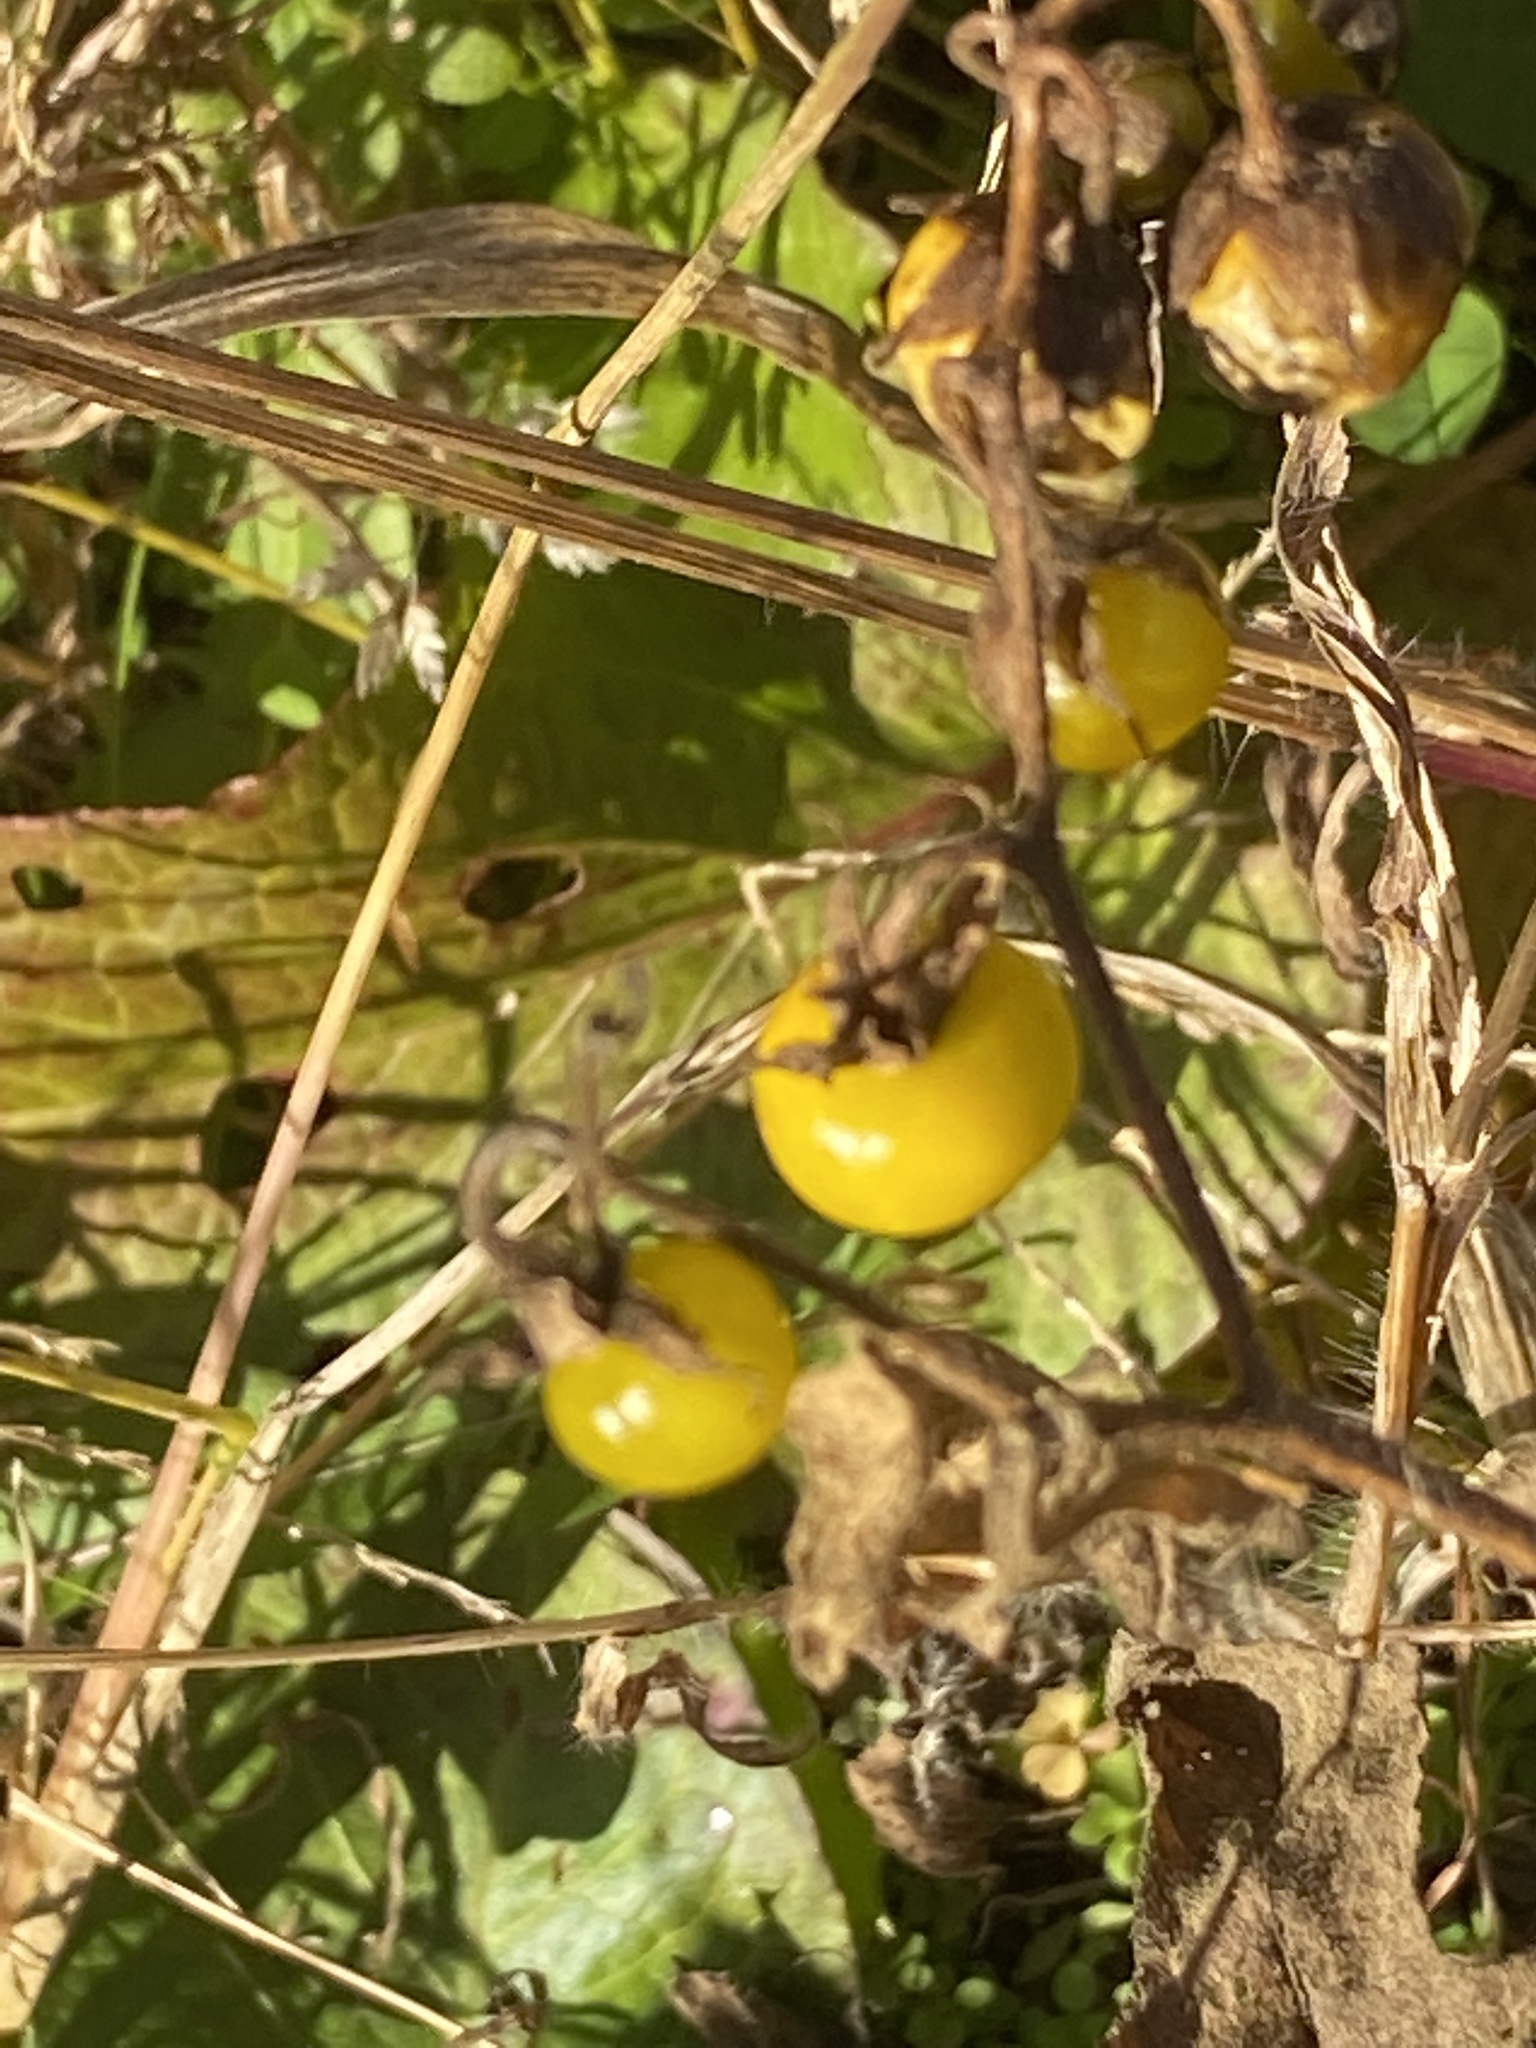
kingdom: Plantae
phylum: Tracheophyta
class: Magnoliopsida
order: Solanales
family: Solanaceae
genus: Solanum
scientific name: Solanum carolinense
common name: Horse-nettle
